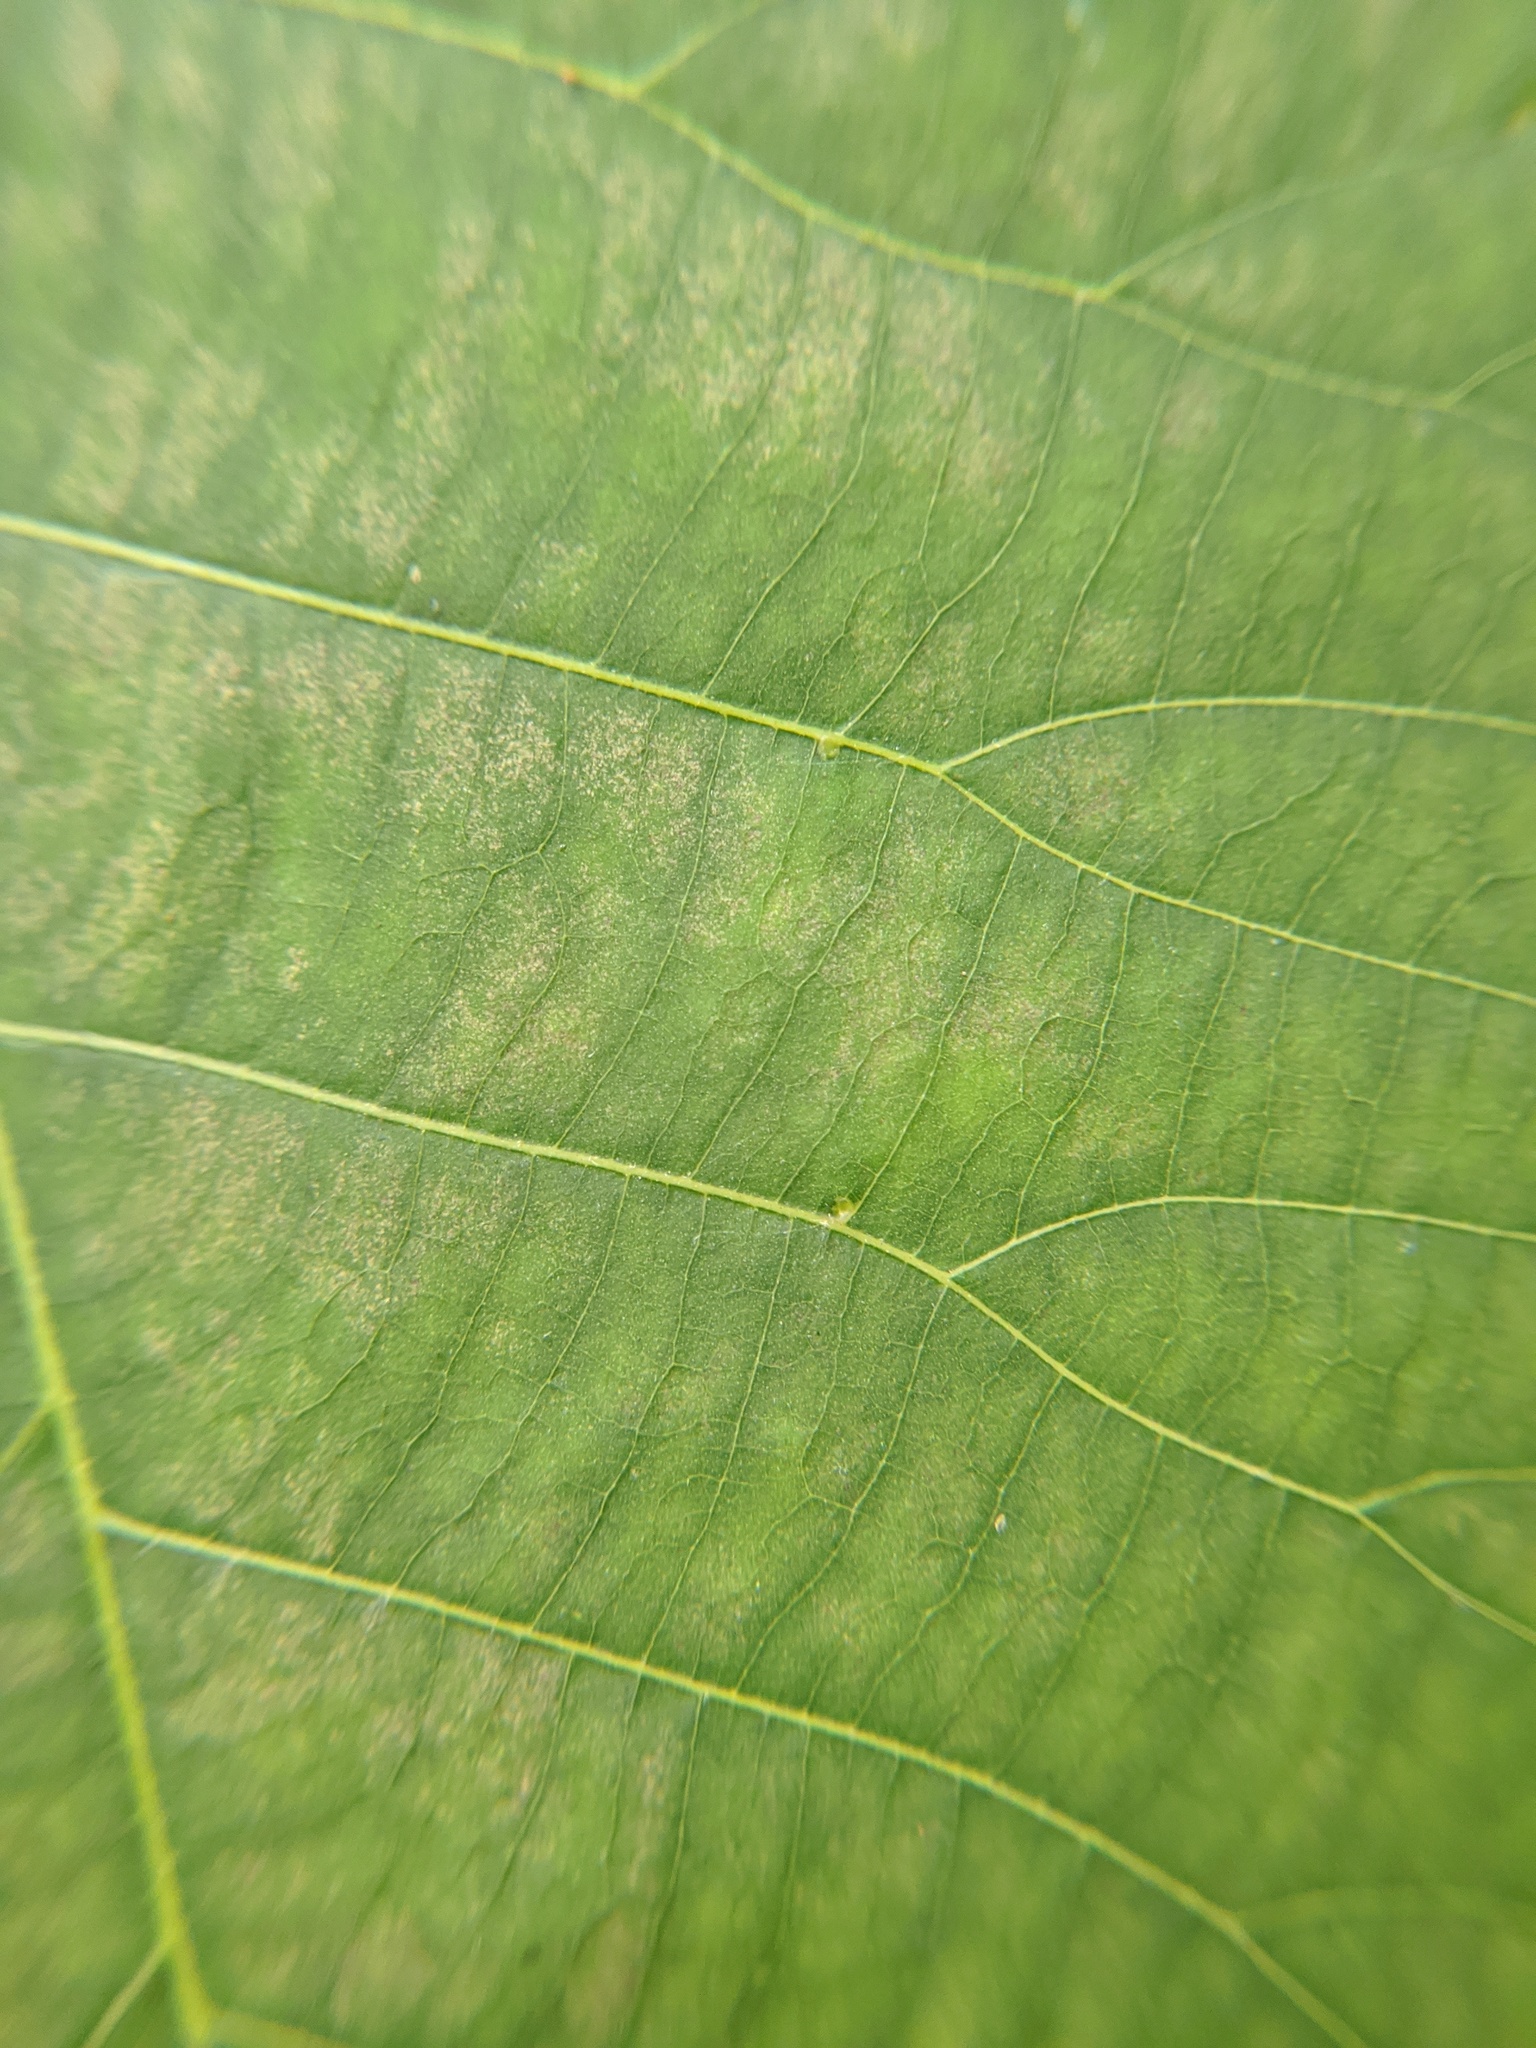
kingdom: Animalia
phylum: Arthropoda
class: Insecta
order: Diptera
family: Cecidomyiidae
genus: Caryomyia
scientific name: Caryomyia recurvata
